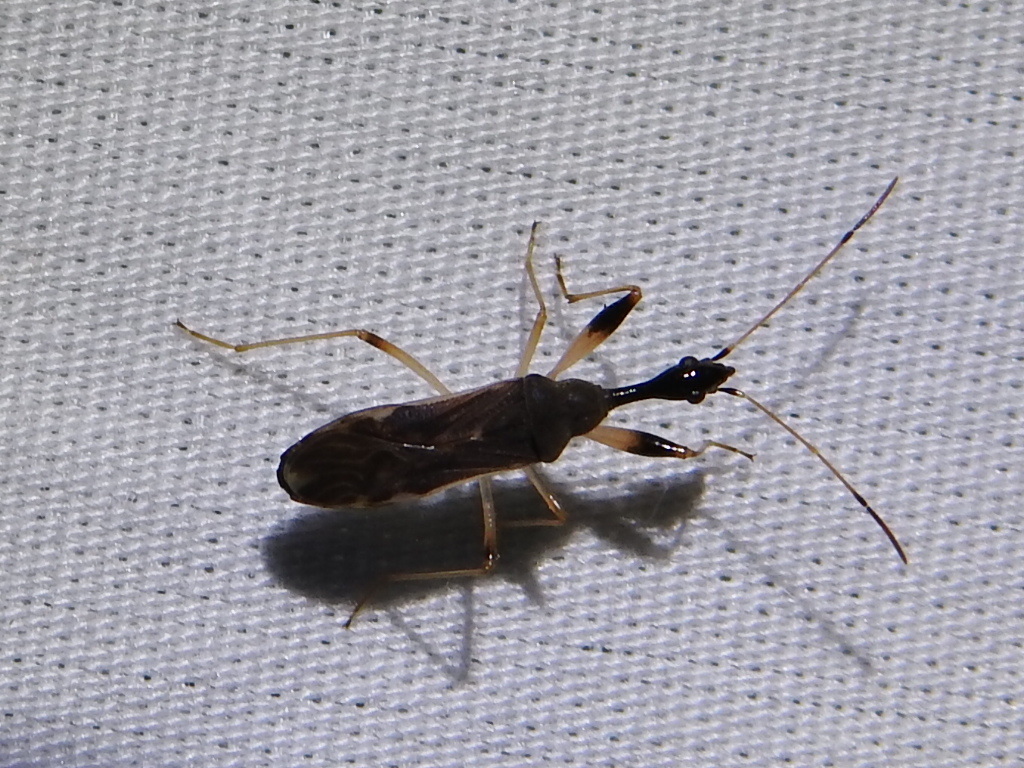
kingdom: Animalia
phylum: Arthropoda
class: Insecta
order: Hemiptera
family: Rhyparochromidae
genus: Myodocha
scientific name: Myodocha serripes
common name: Long-necked seed bug
